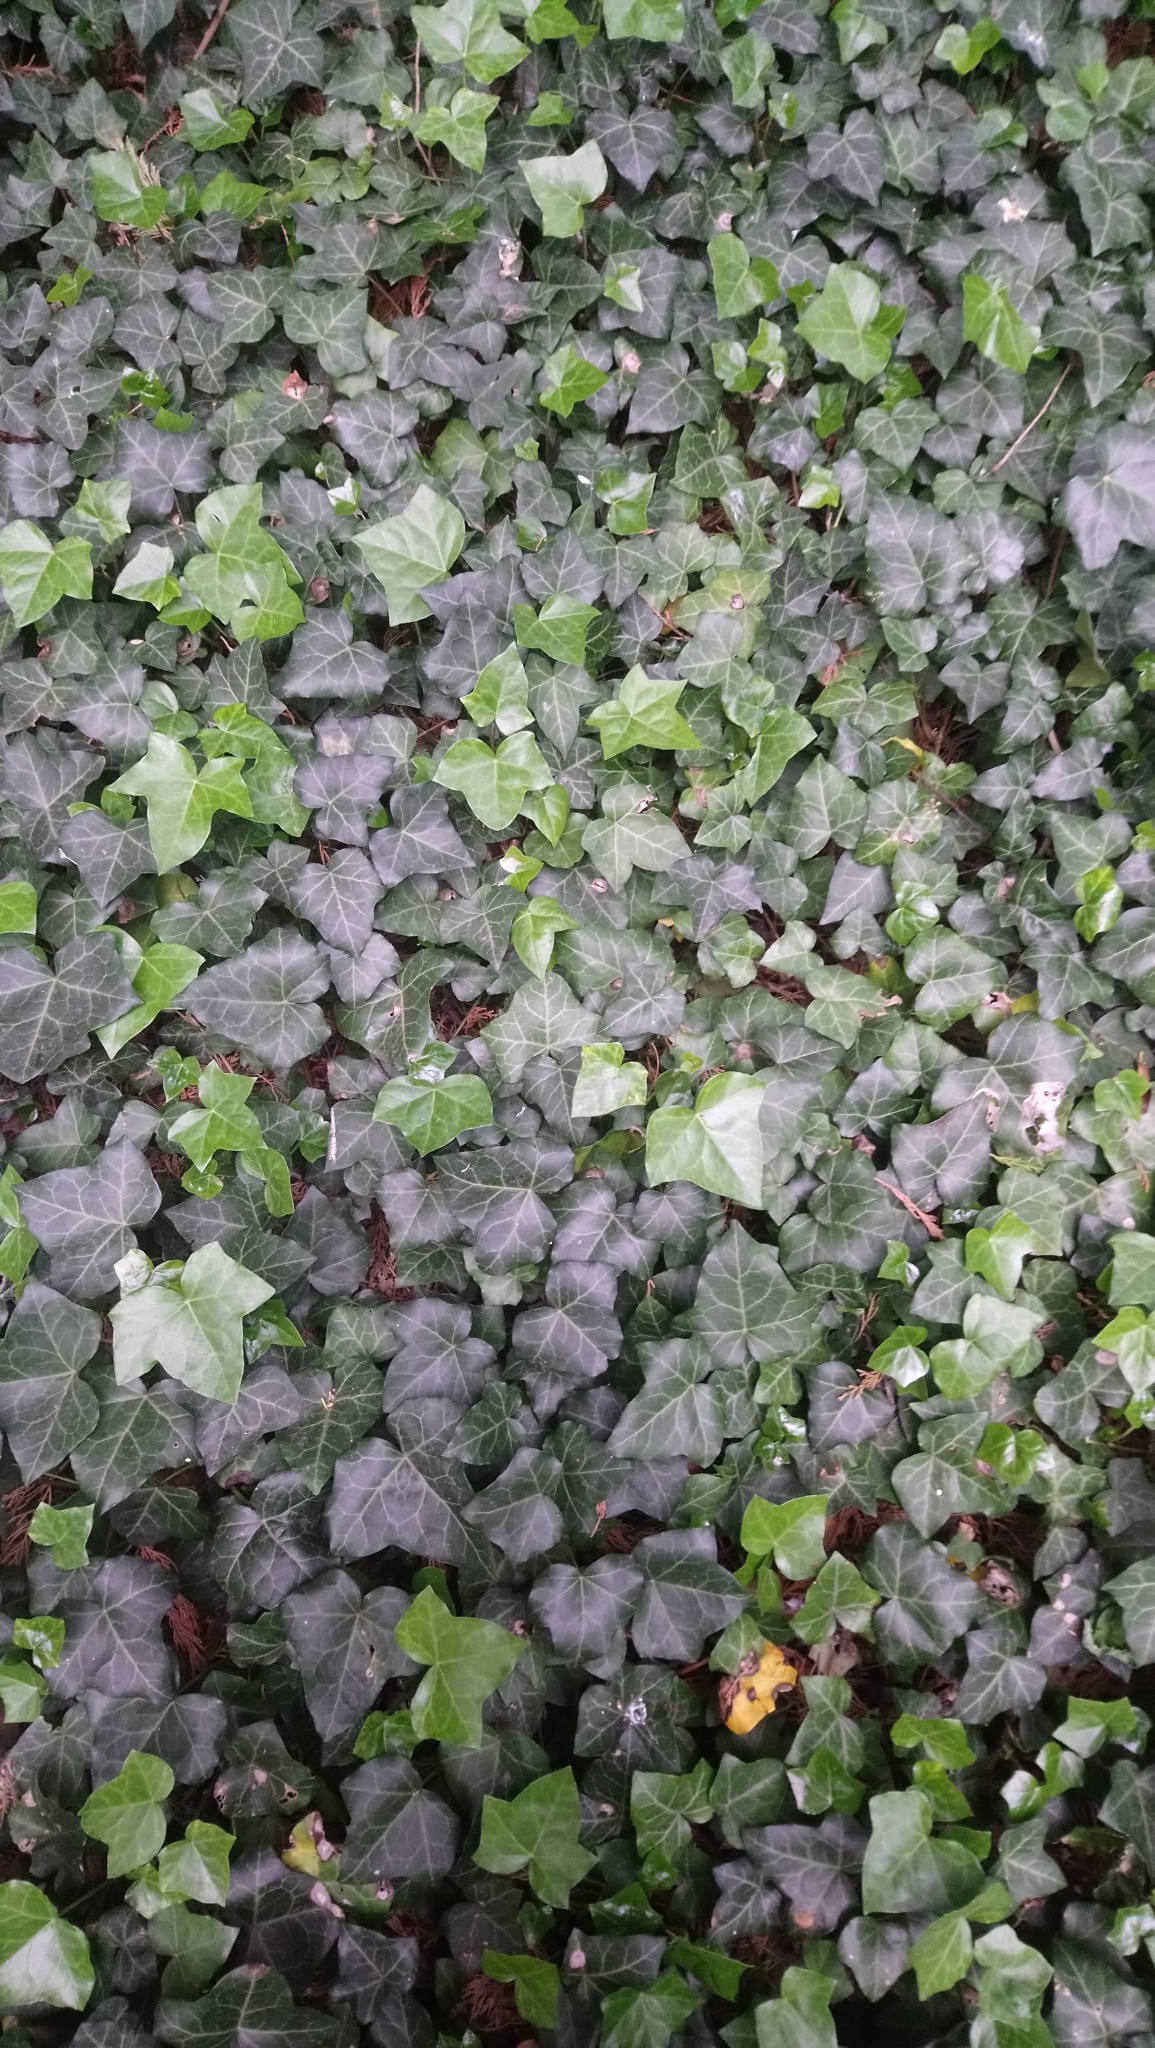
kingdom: Plantae
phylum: Tracheophyta
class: Magnoliopsida
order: Apiales
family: Araliaceae
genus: Hedera
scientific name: Hedera helix
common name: Ivy
